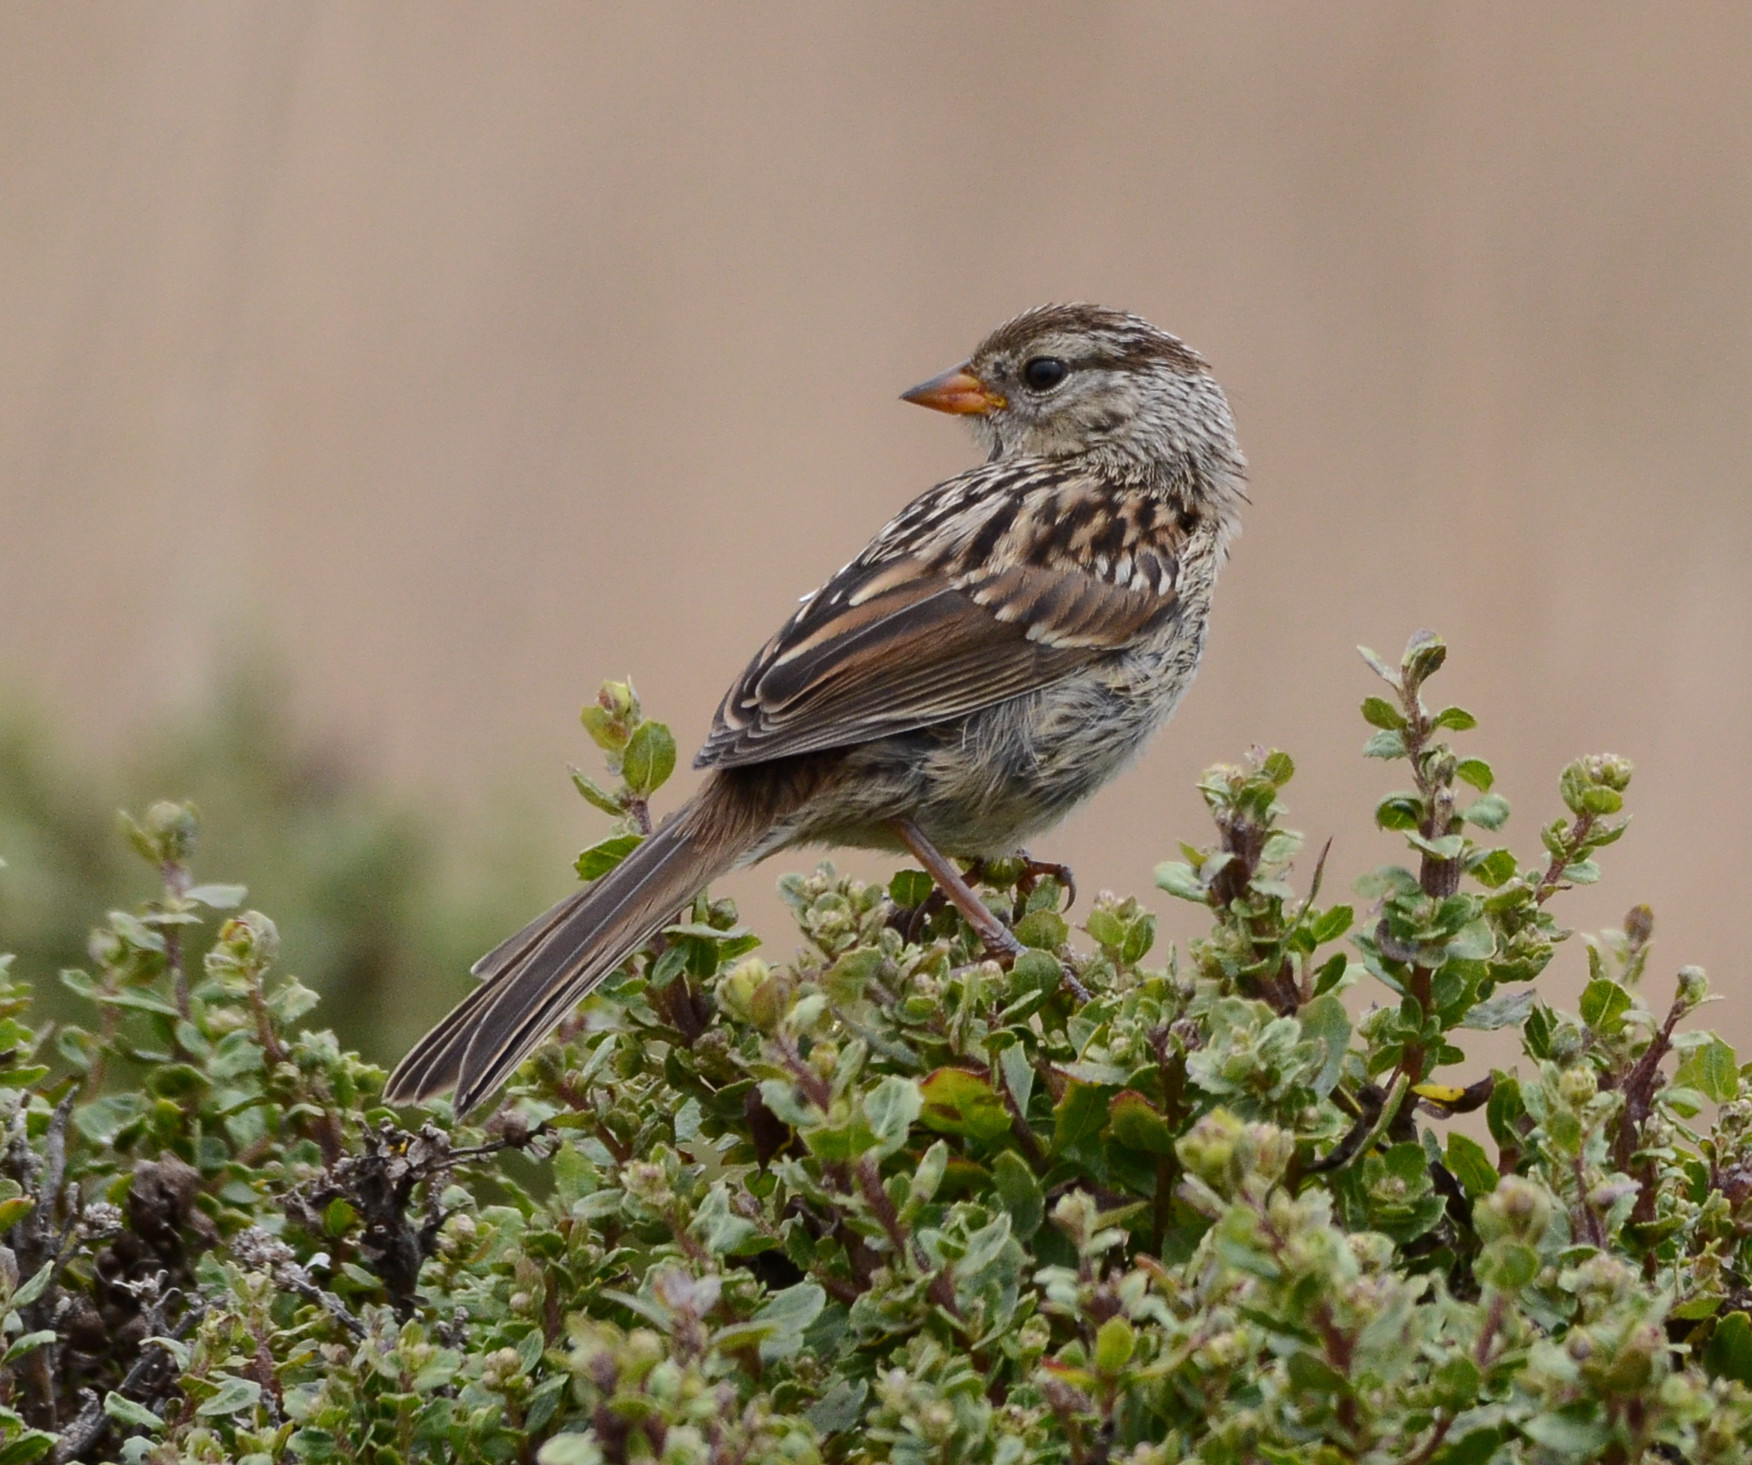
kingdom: Animalia
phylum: Chordata
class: Aves
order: Passeriformes
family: Passerellidae
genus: Zonotrichia
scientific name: Zonotrichia leucophrys
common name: White-crowned sparrow
